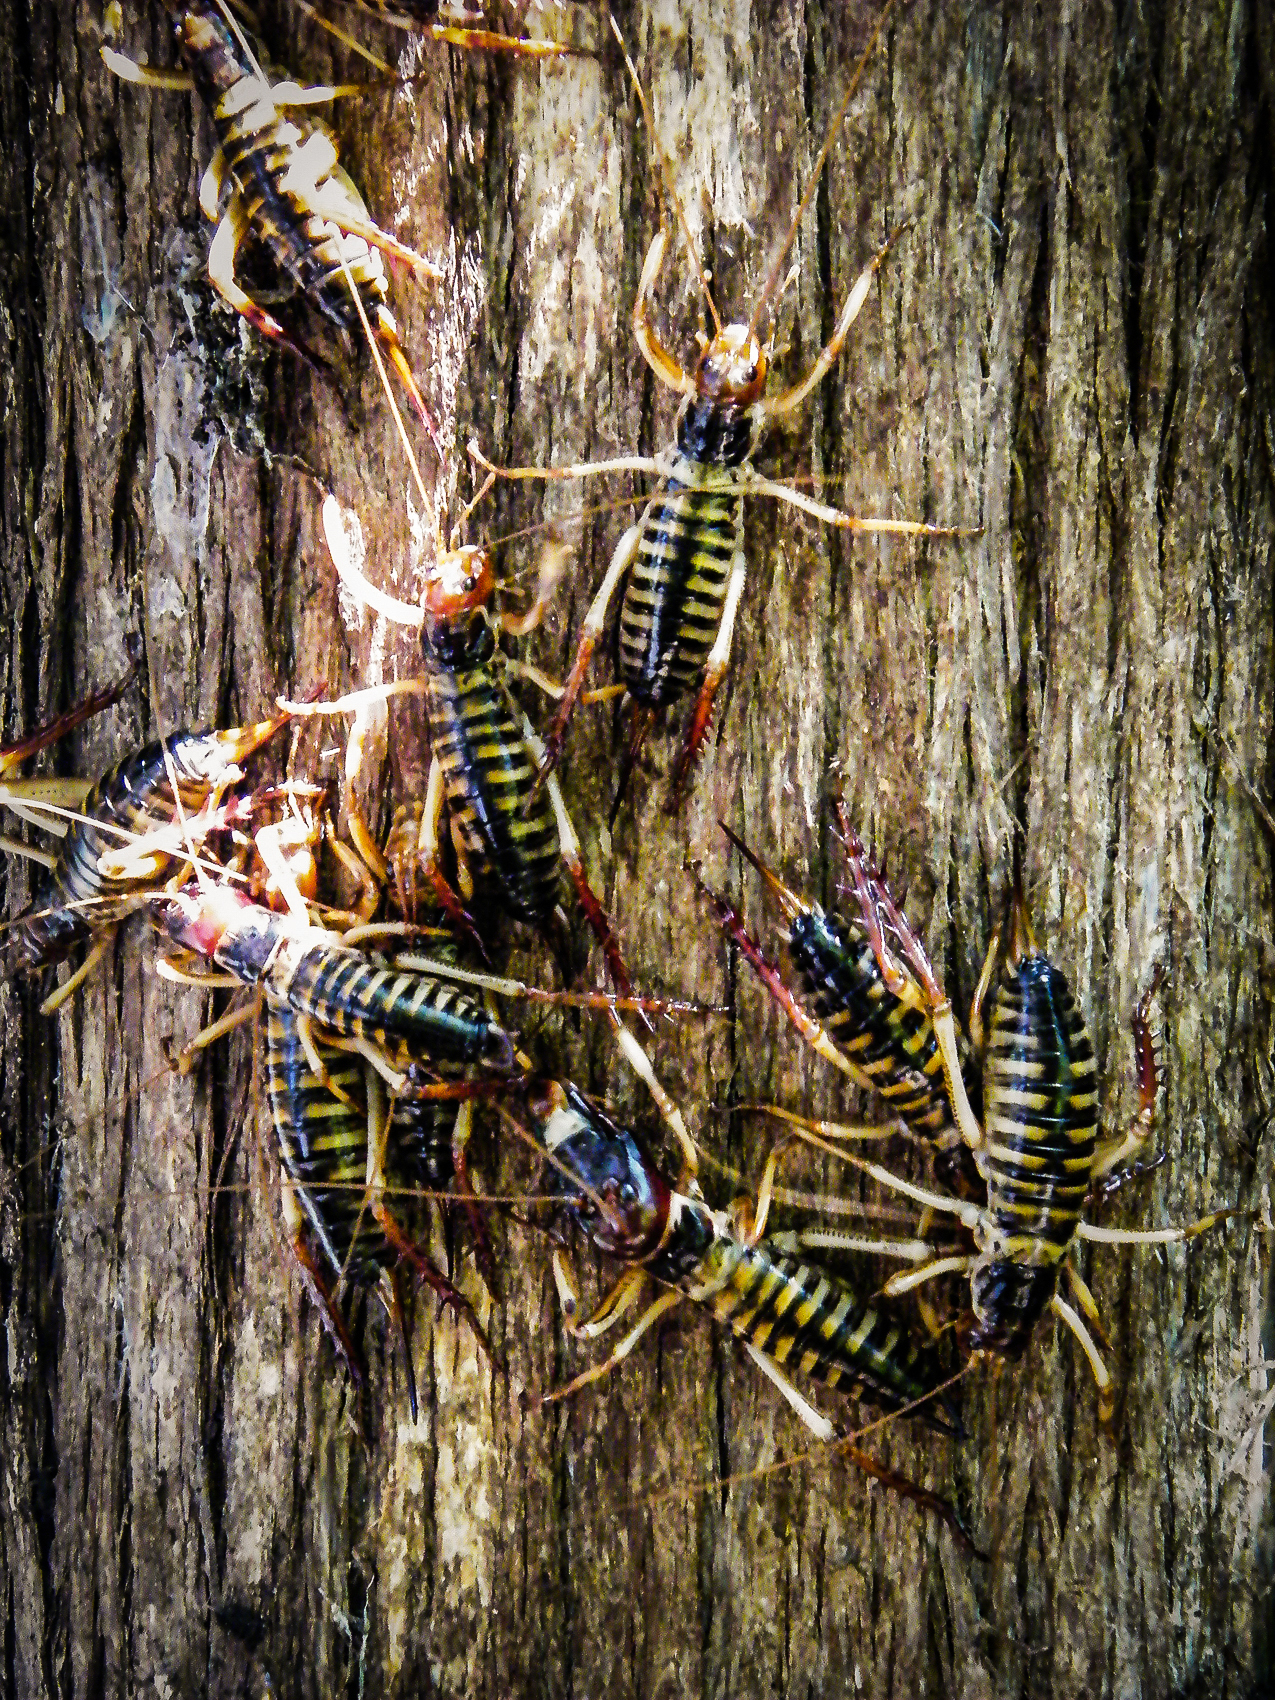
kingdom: Animalia
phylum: Arthropoda
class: Insecta
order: Orthoptera
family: Anostostomatidae
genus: Hemideina
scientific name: Hemideina crassidens
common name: Wellington tree weta
